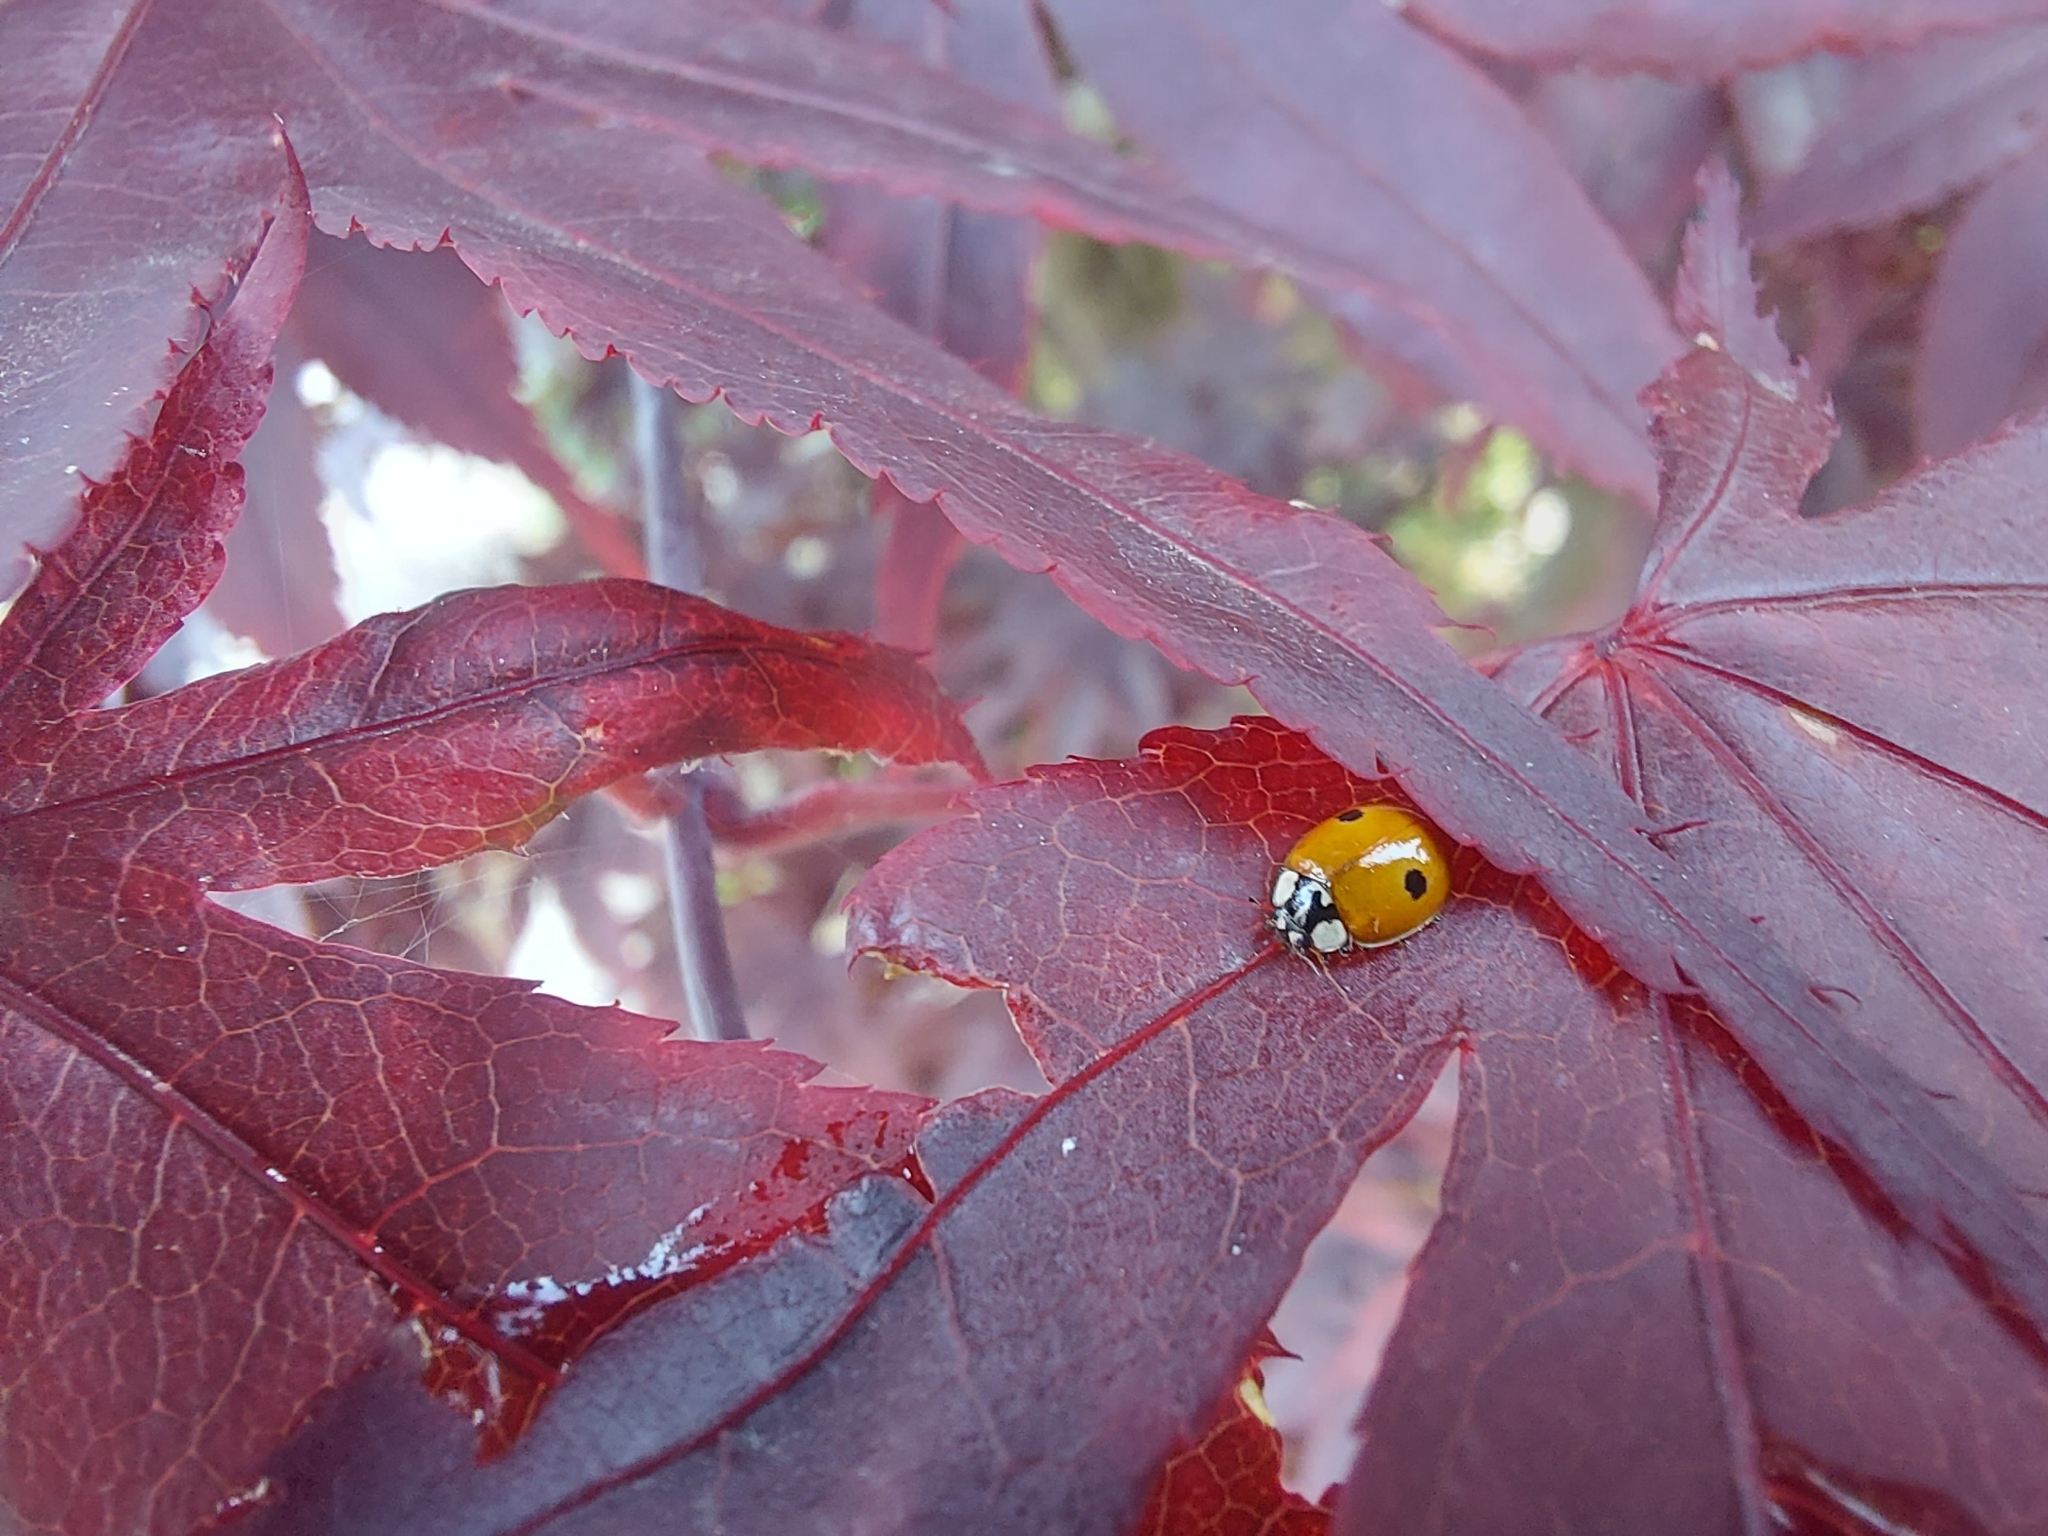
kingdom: Animalia
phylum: Arthropoda
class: Insecta
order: Coleoptera
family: Coccinellidae
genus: Adalia
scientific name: Adalia bipunctata
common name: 2-spot ladybird
